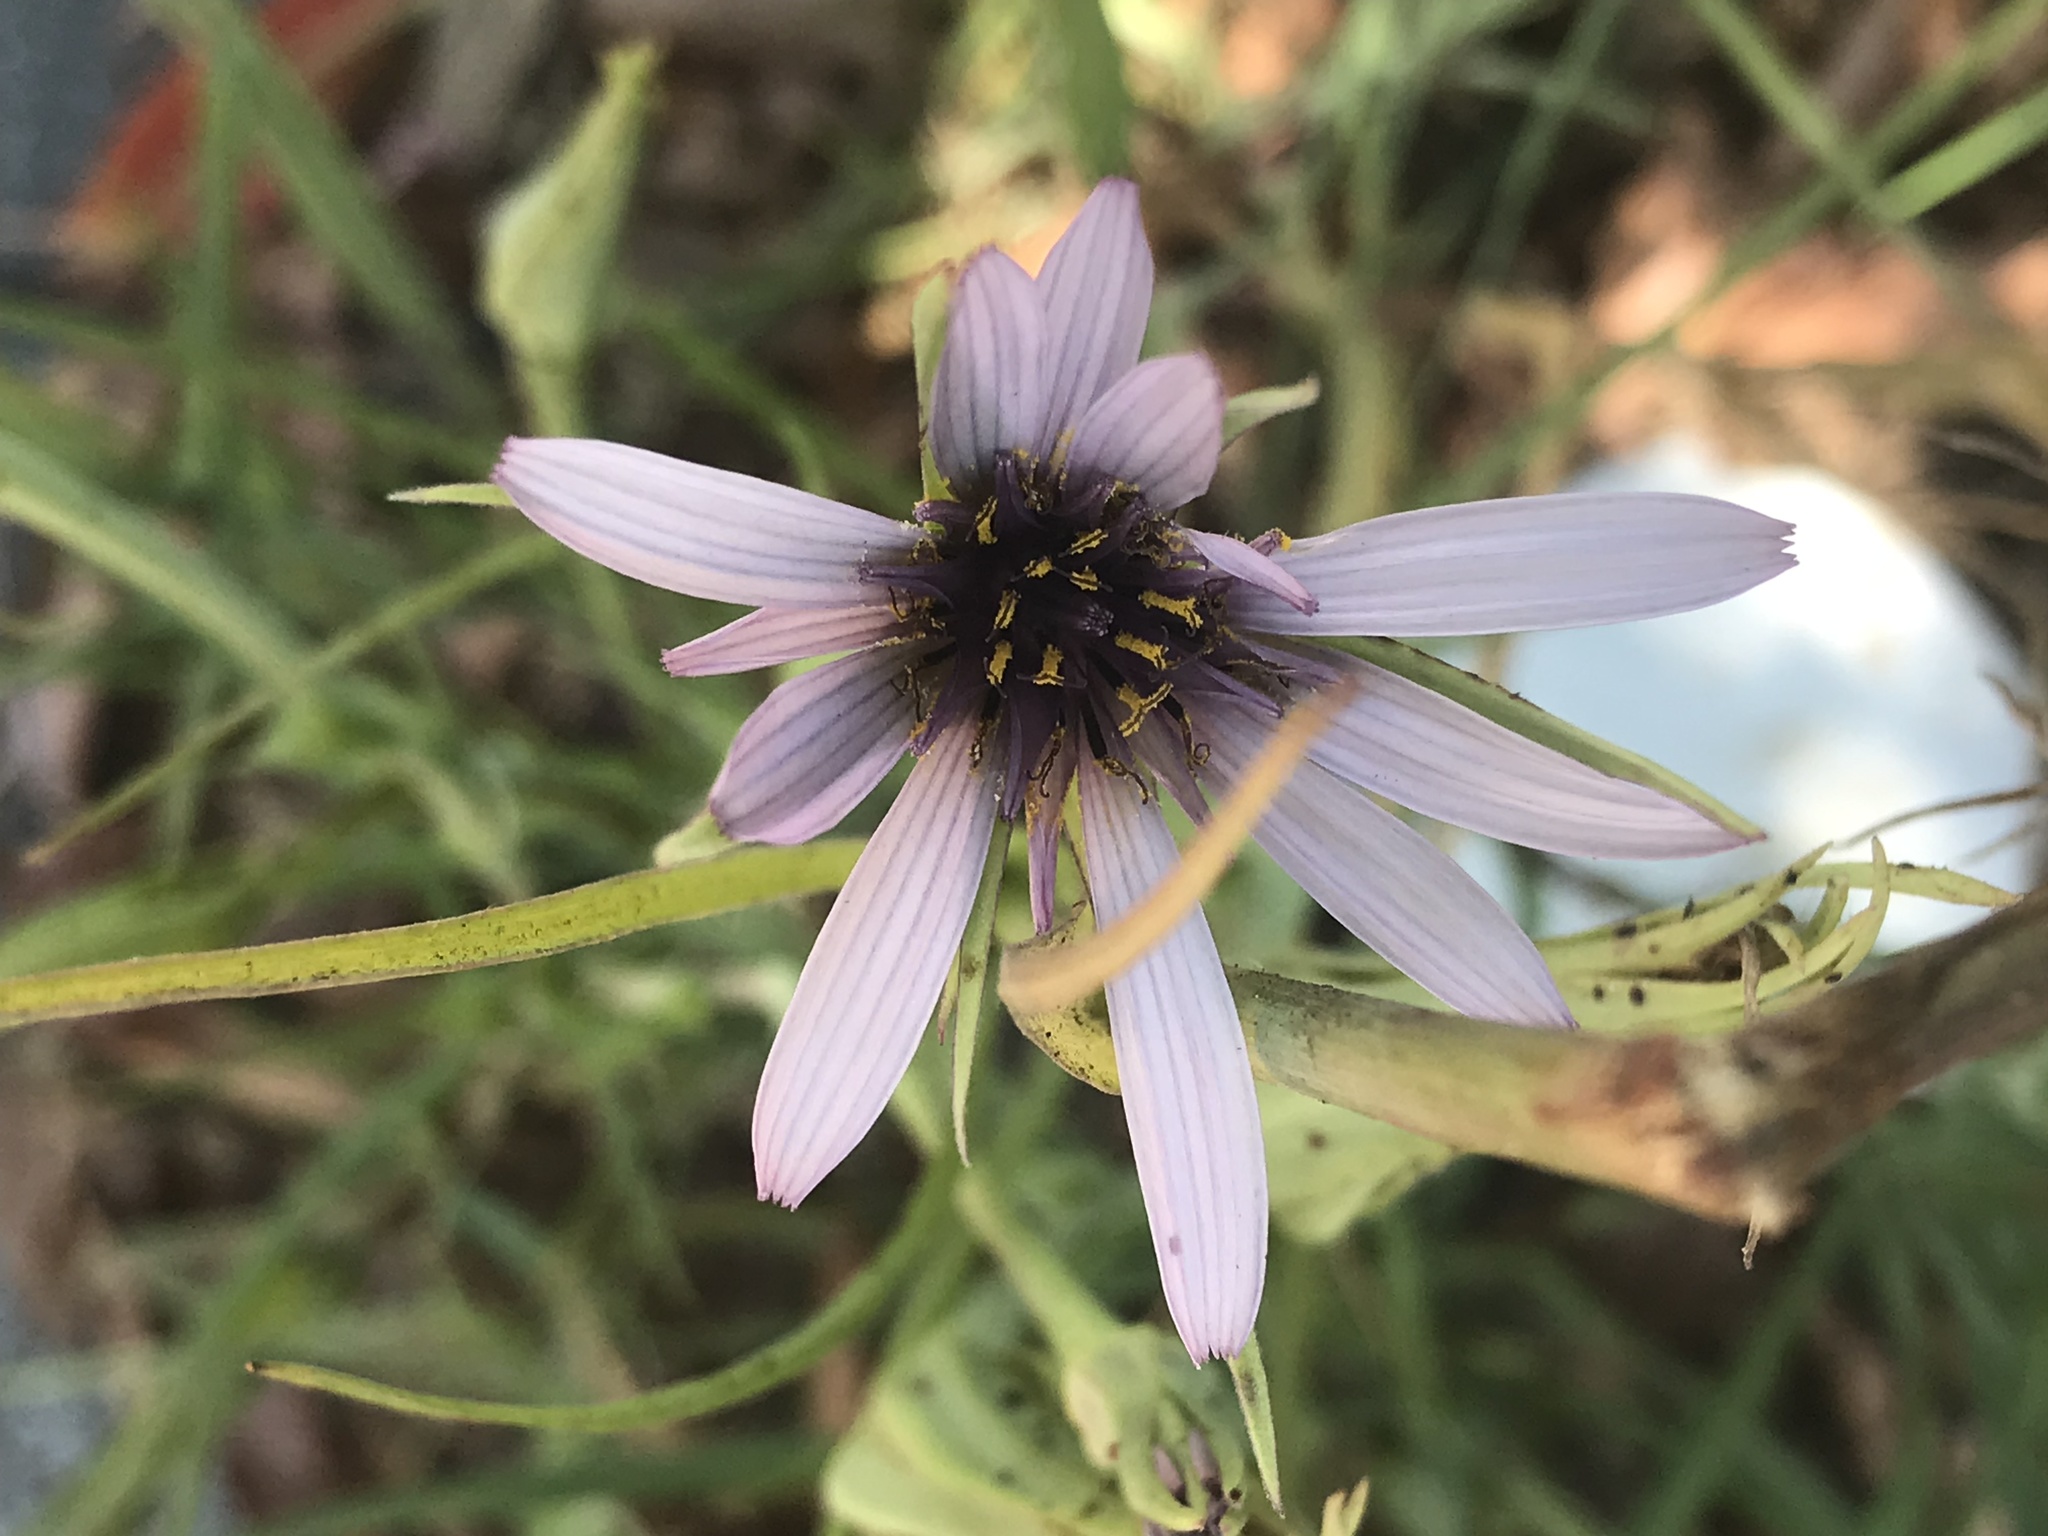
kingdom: Plantae
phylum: Tracheophyta
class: Magnoliopsida
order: Asterales
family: Asteraceae
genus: Tragopogon
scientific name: Tragopogon porrifolius
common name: Salsify
